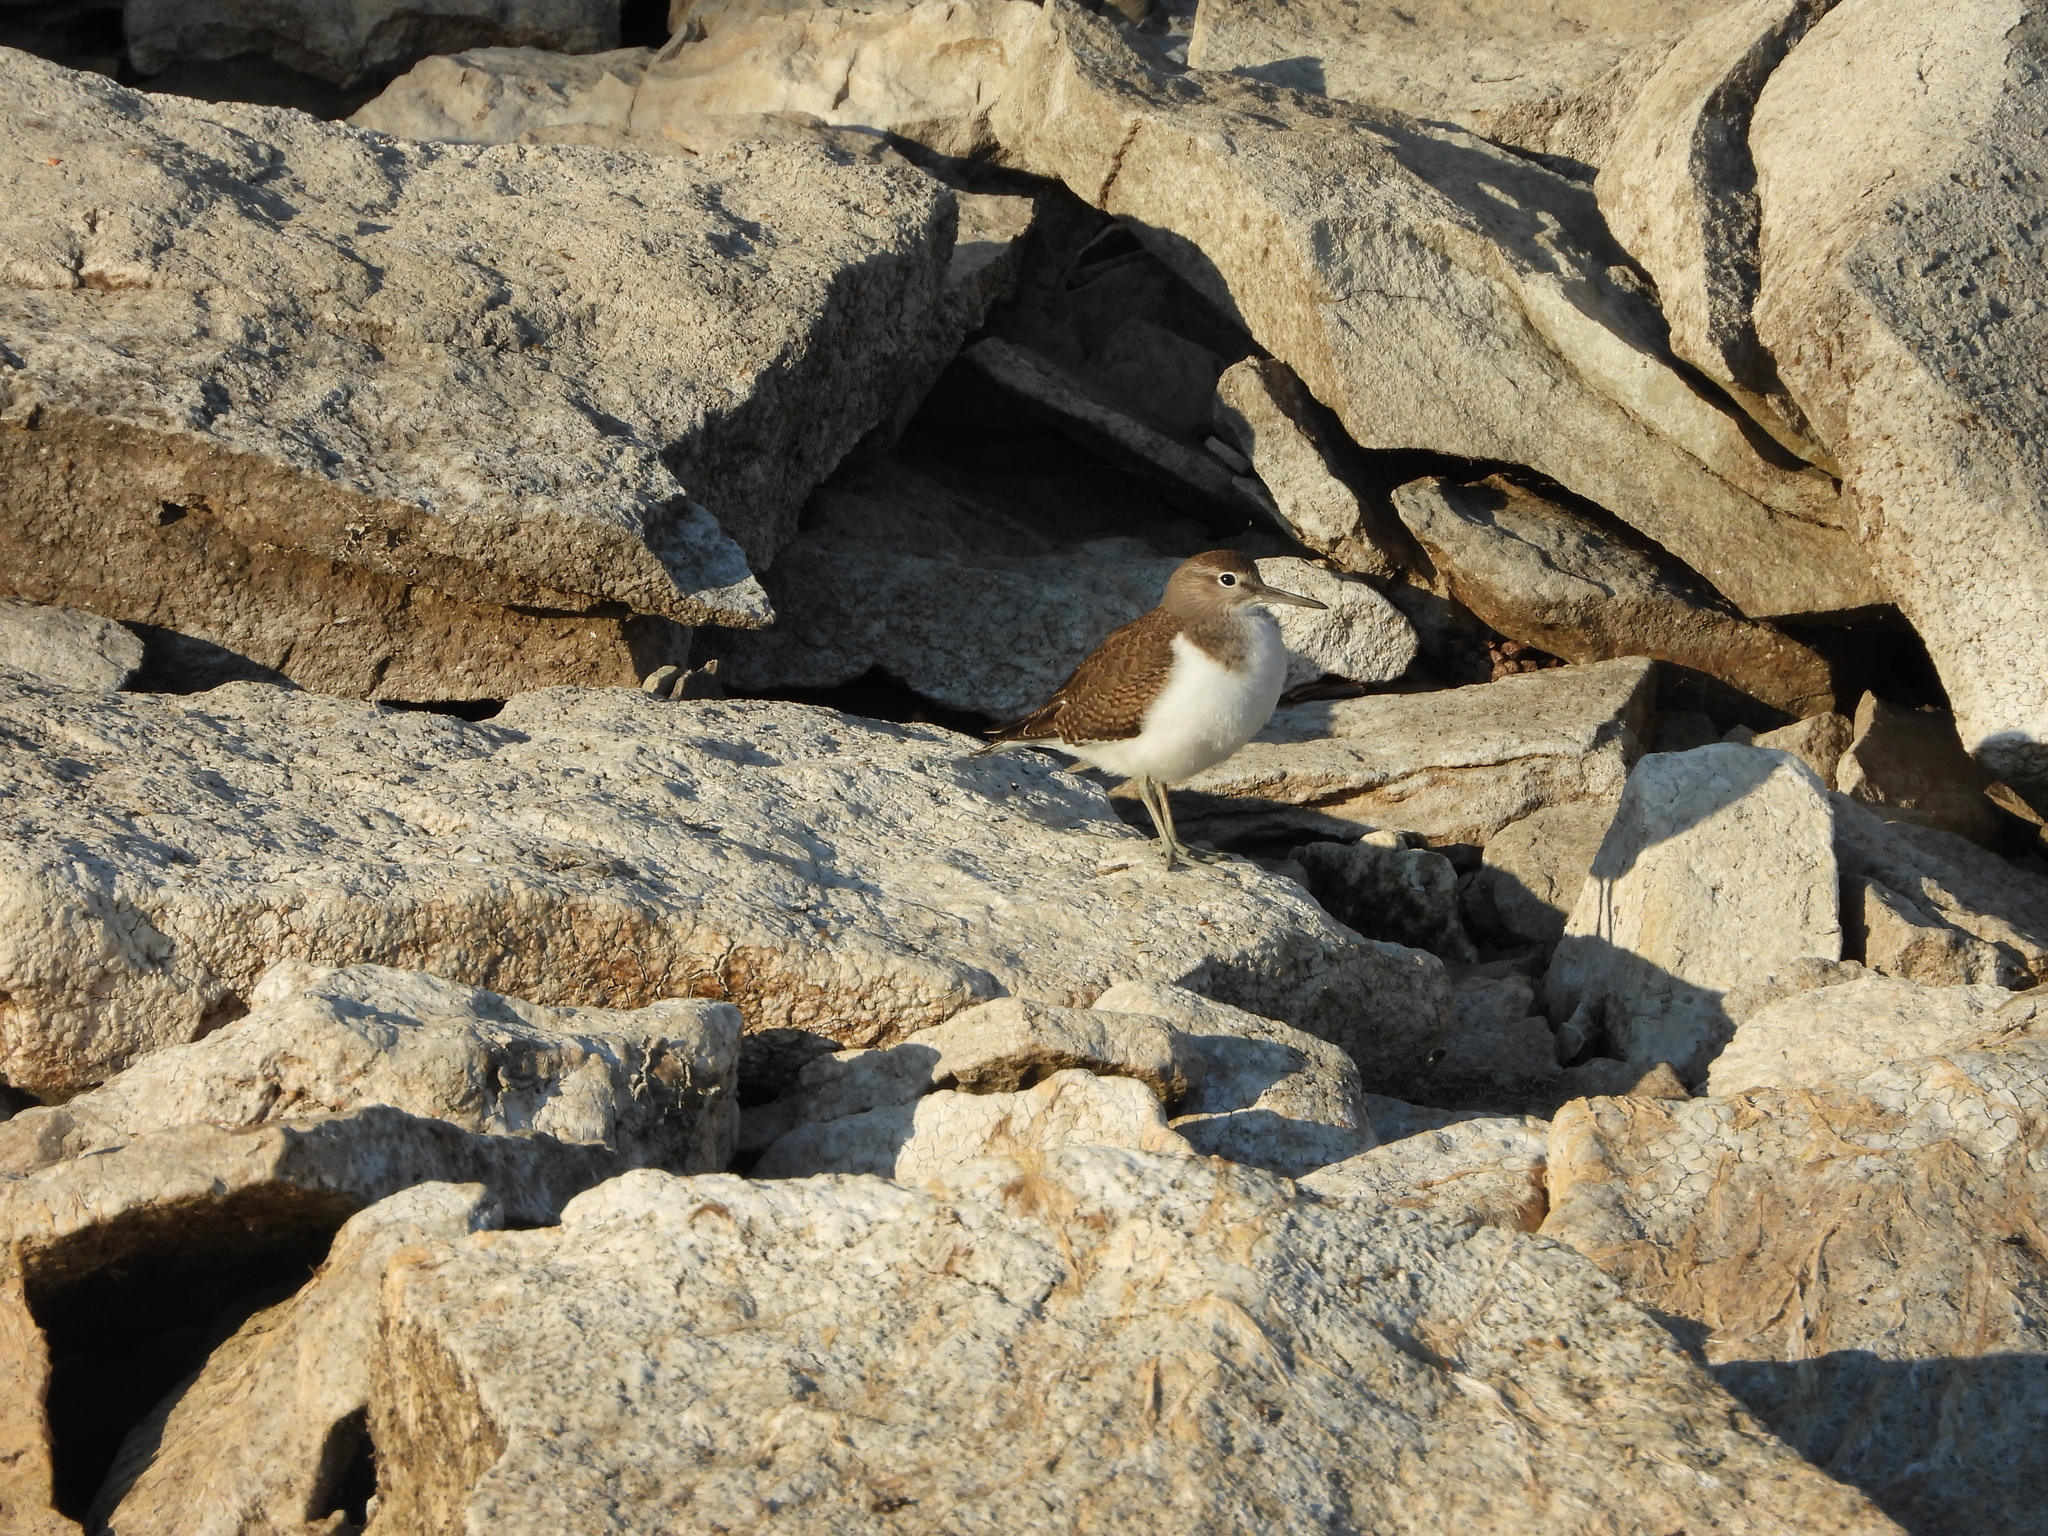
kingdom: Animalia
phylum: Chordata
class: Aves
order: Charadriiformes
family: Scolopacidae
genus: Actitis
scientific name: Actitis hypoleucos
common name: Common sandpiper
